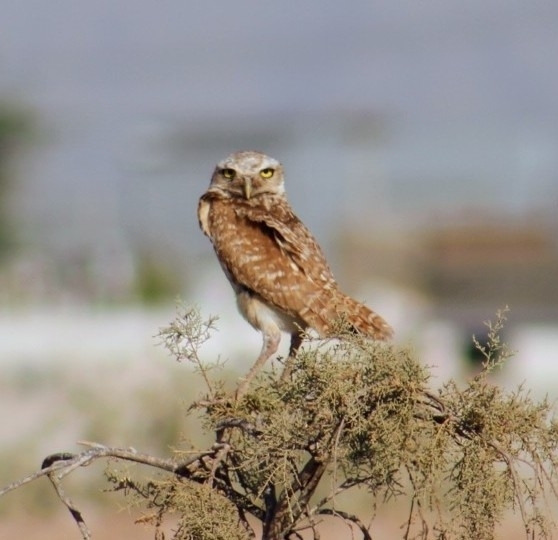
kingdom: Animalia
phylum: Chordata
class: Aves
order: Strigiformes
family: Strigidae
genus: Athene
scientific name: Athene cunicularia
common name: Burrowing owl
